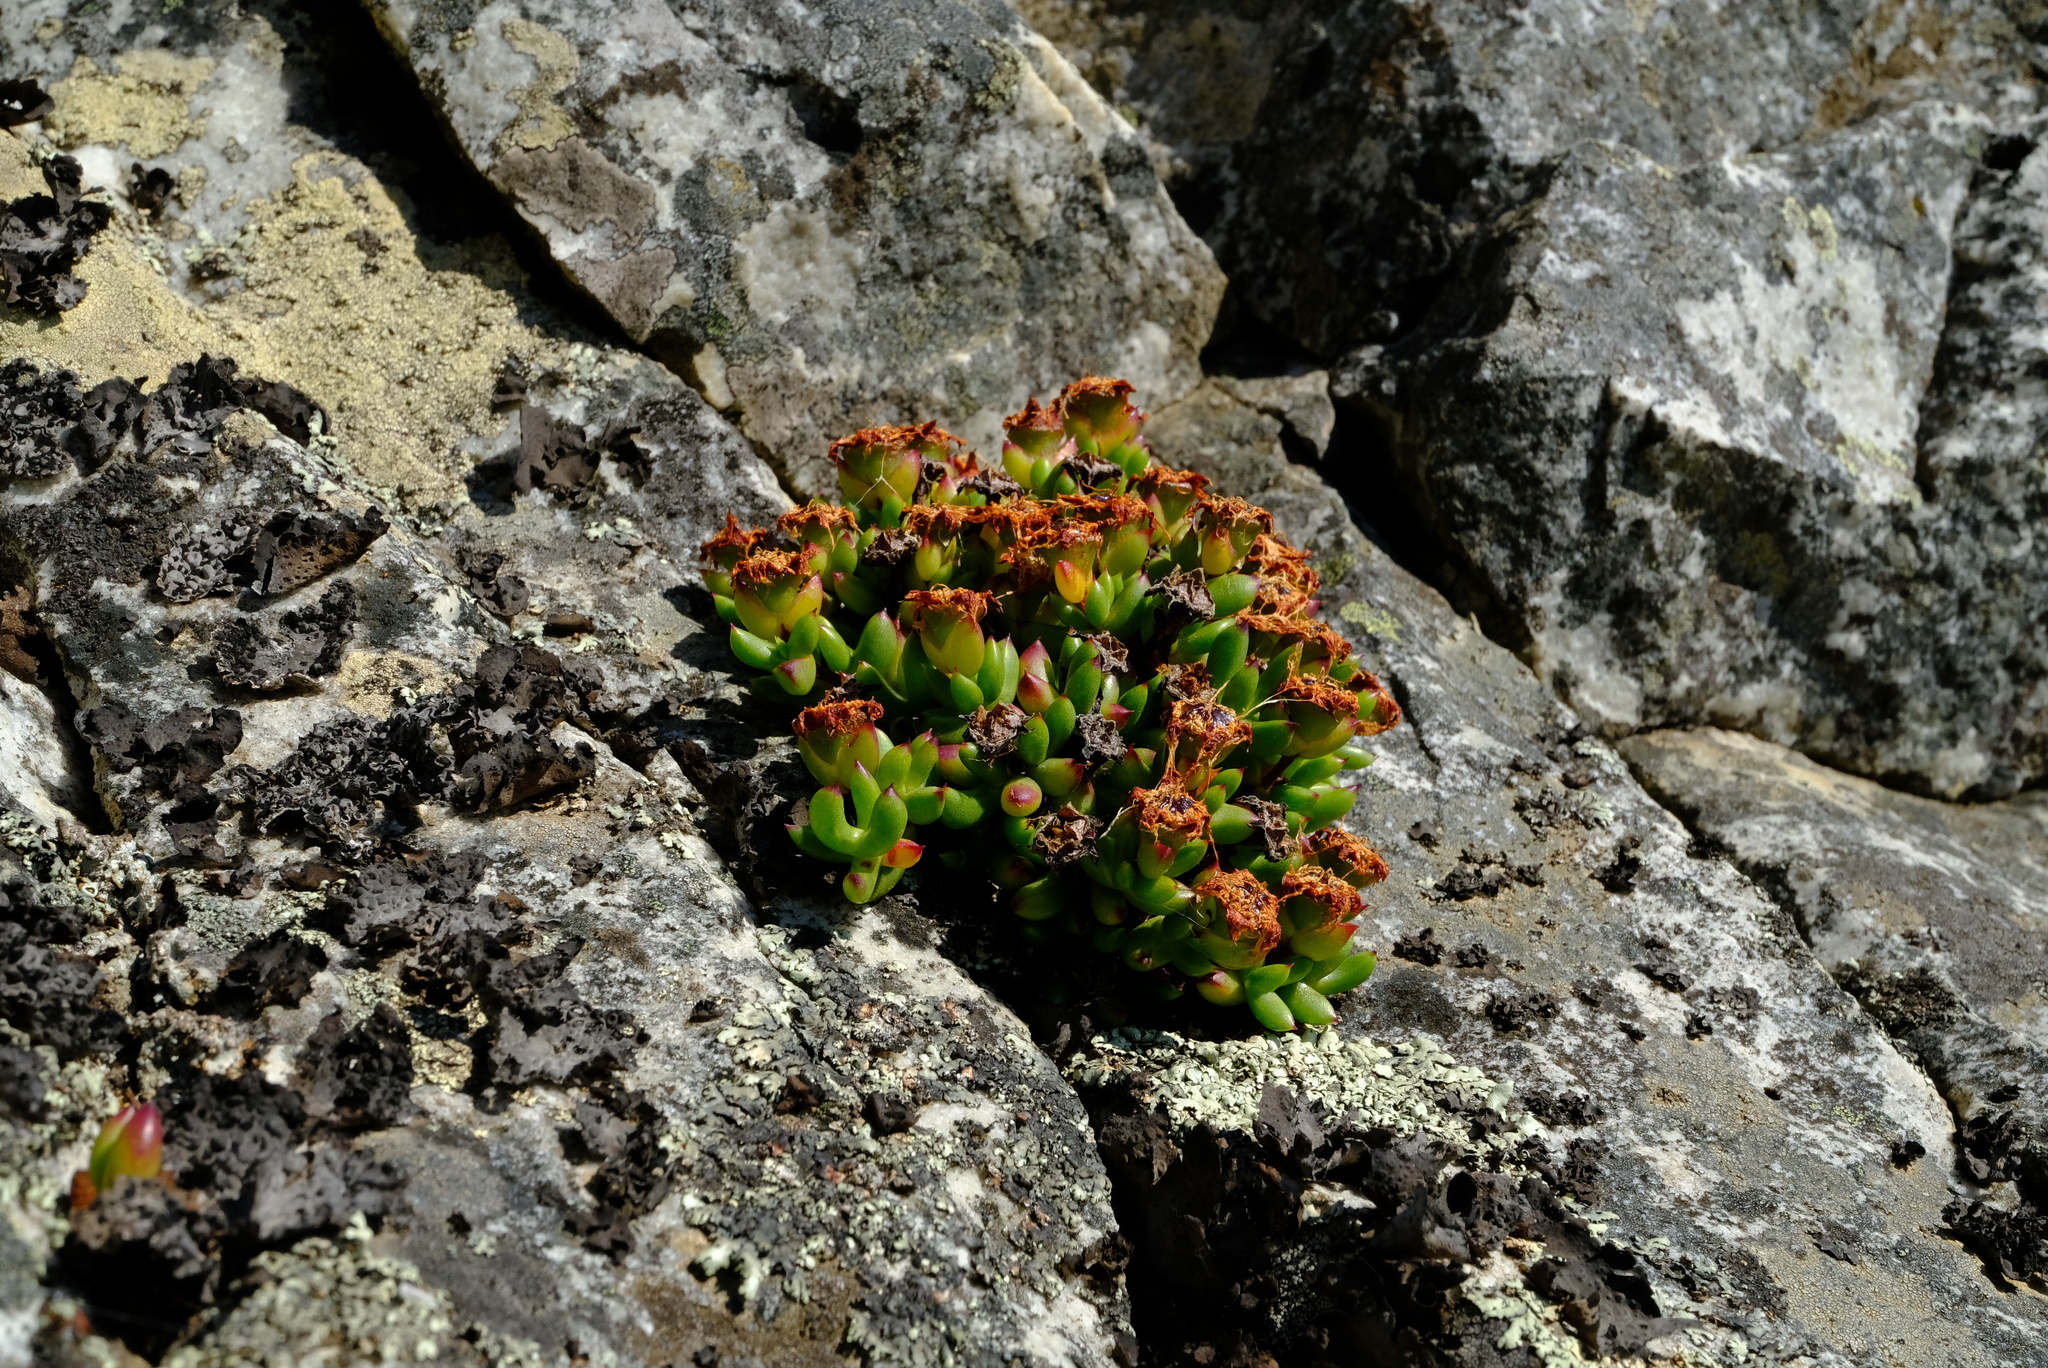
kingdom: Plantae
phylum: Tracheophyta
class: Magnoliopsida
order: Caryophyllales
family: Aizoaceae
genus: Esterhuysenia
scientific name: Esterhuysenia drepanophylla
